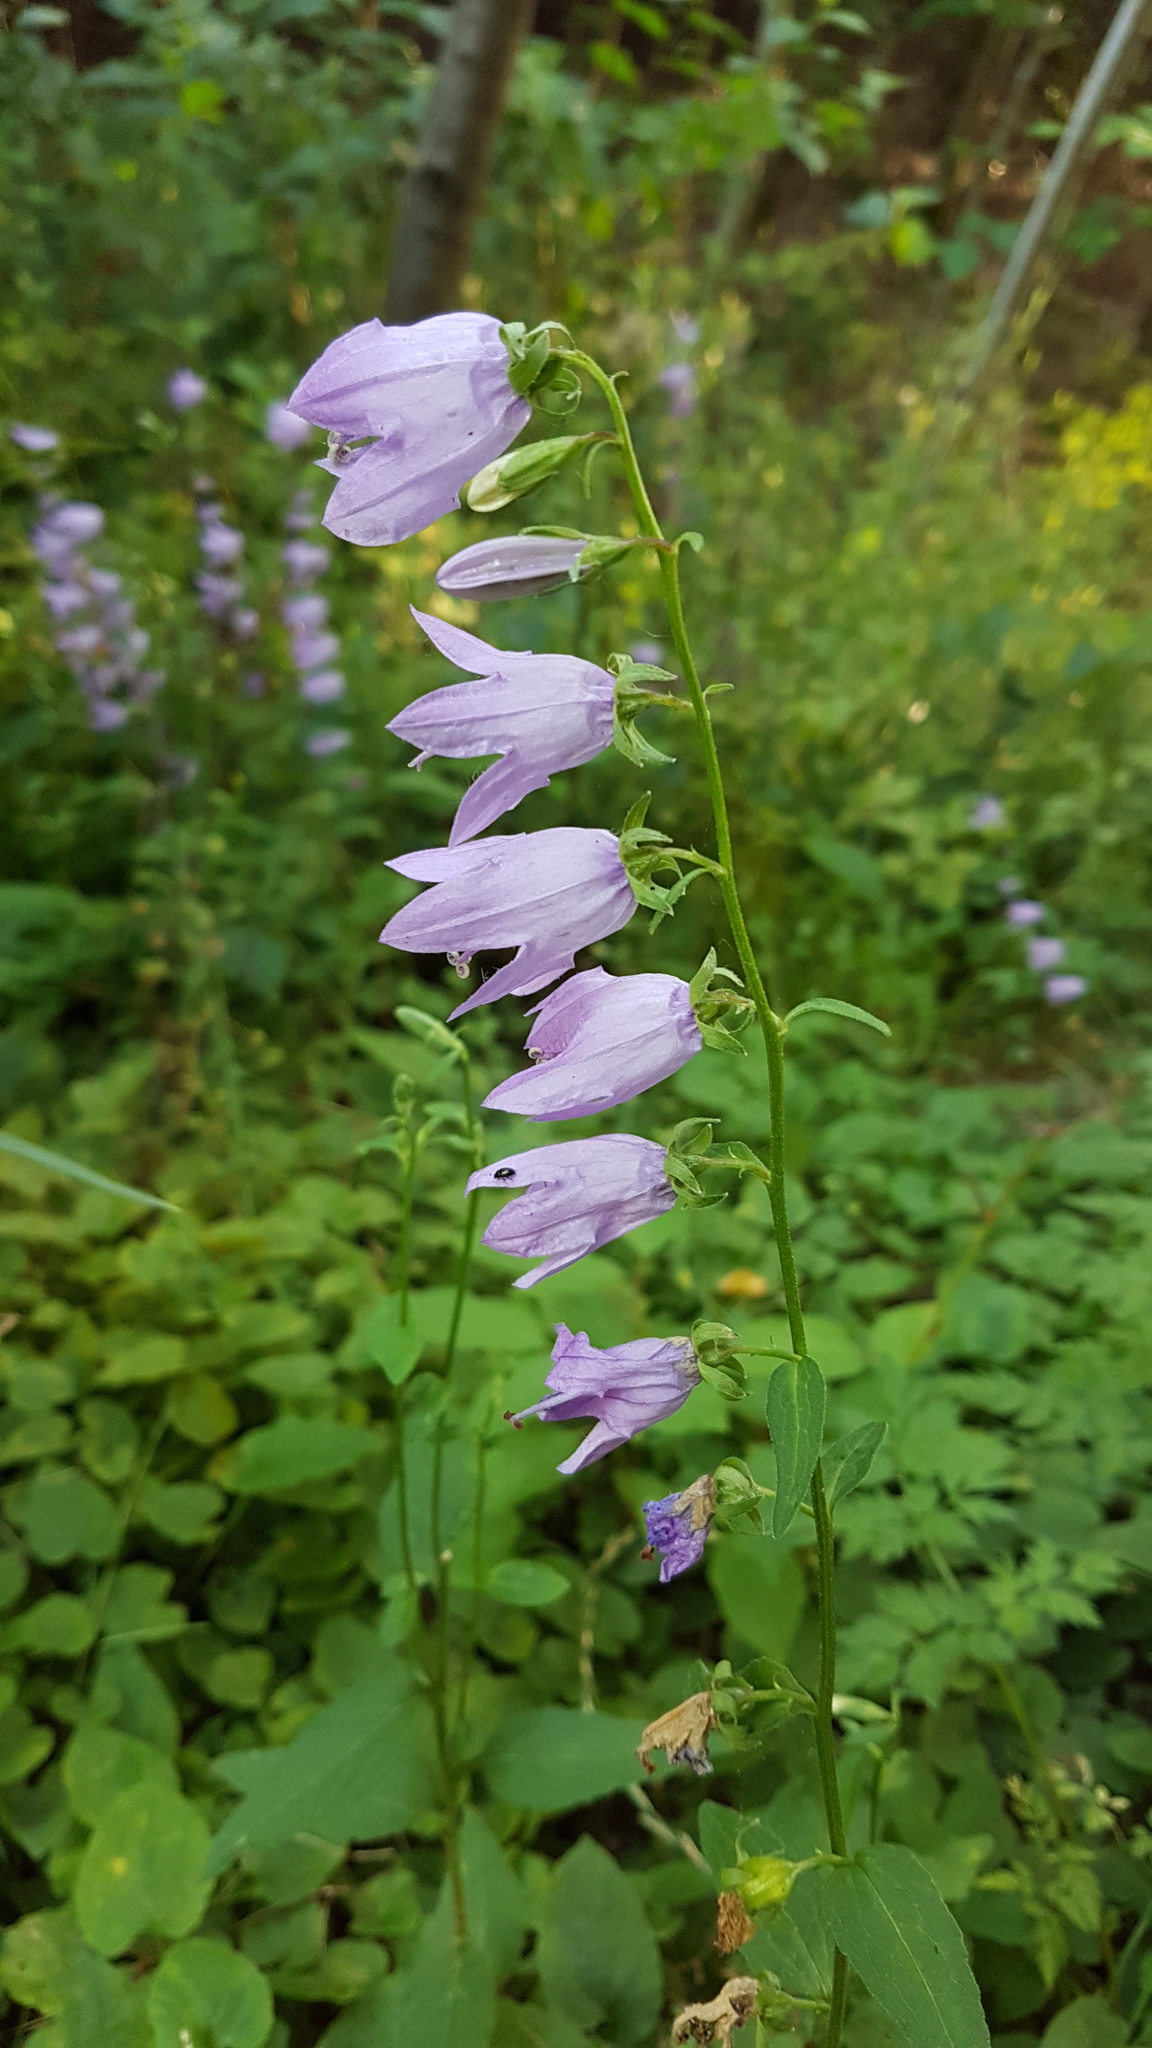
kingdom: Plantae
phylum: Tracheophyta
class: Magnoliopsida
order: Asterales
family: Campanulaceae
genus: Campanula
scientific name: Campanula rapunculoides
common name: Creeping bellflower
